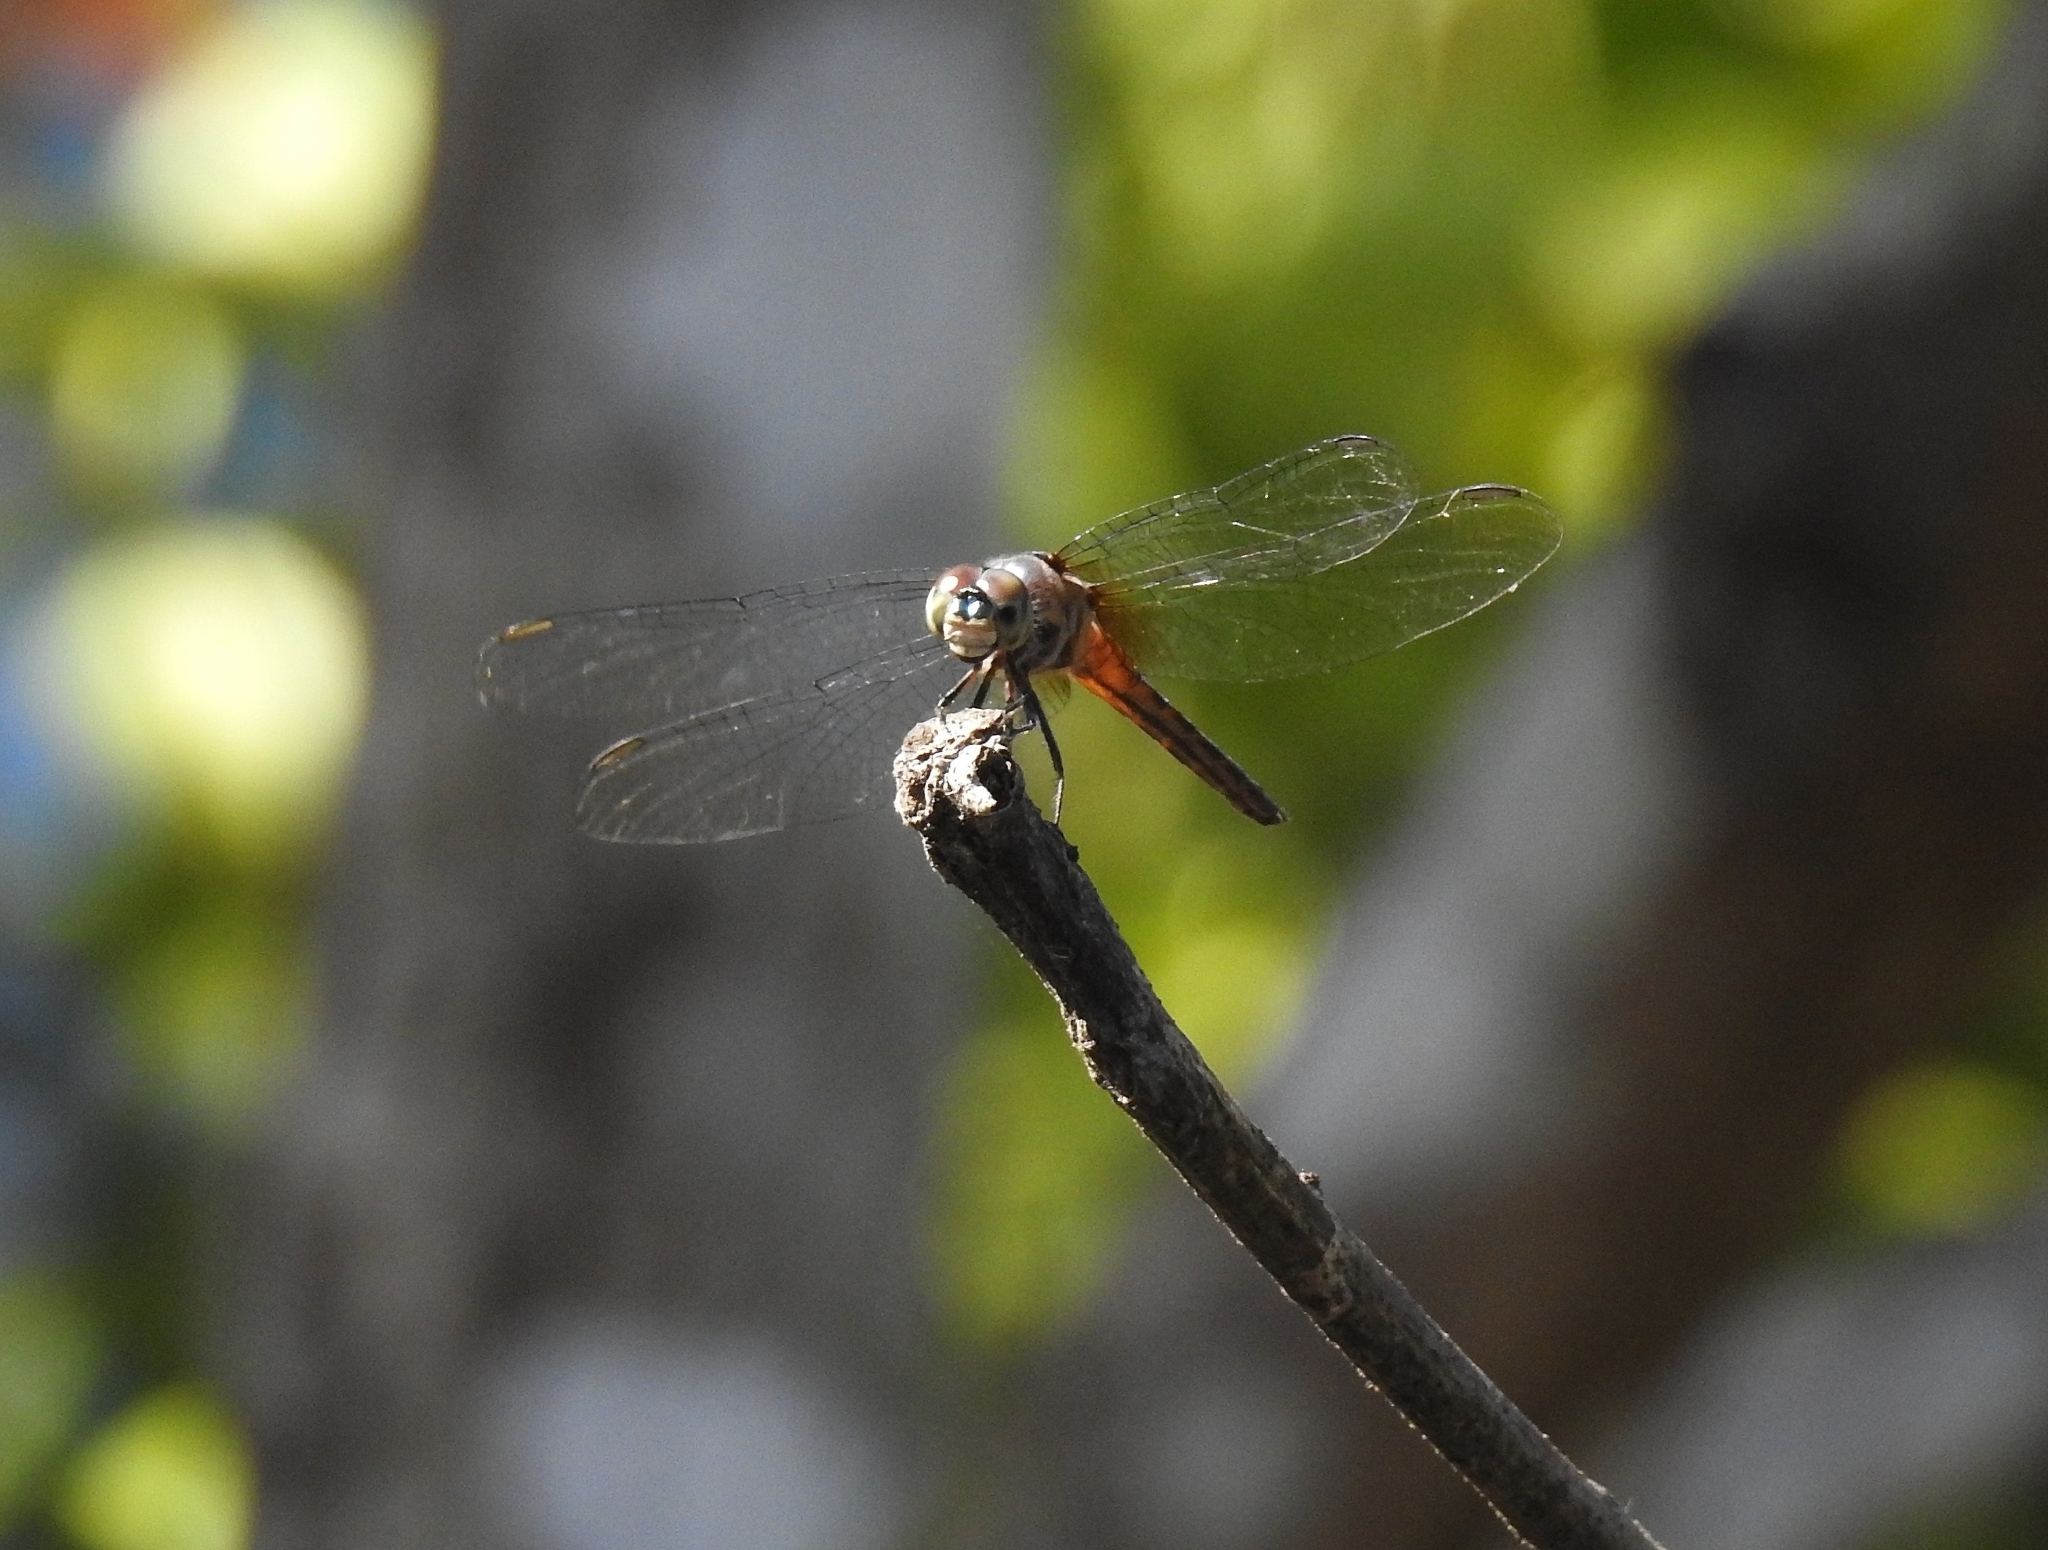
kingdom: Animalia
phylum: Arthropoda
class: Insecta
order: Odonata
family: Libellulidae
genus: Brachydiplax
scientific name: Brachydiplax chalybea
